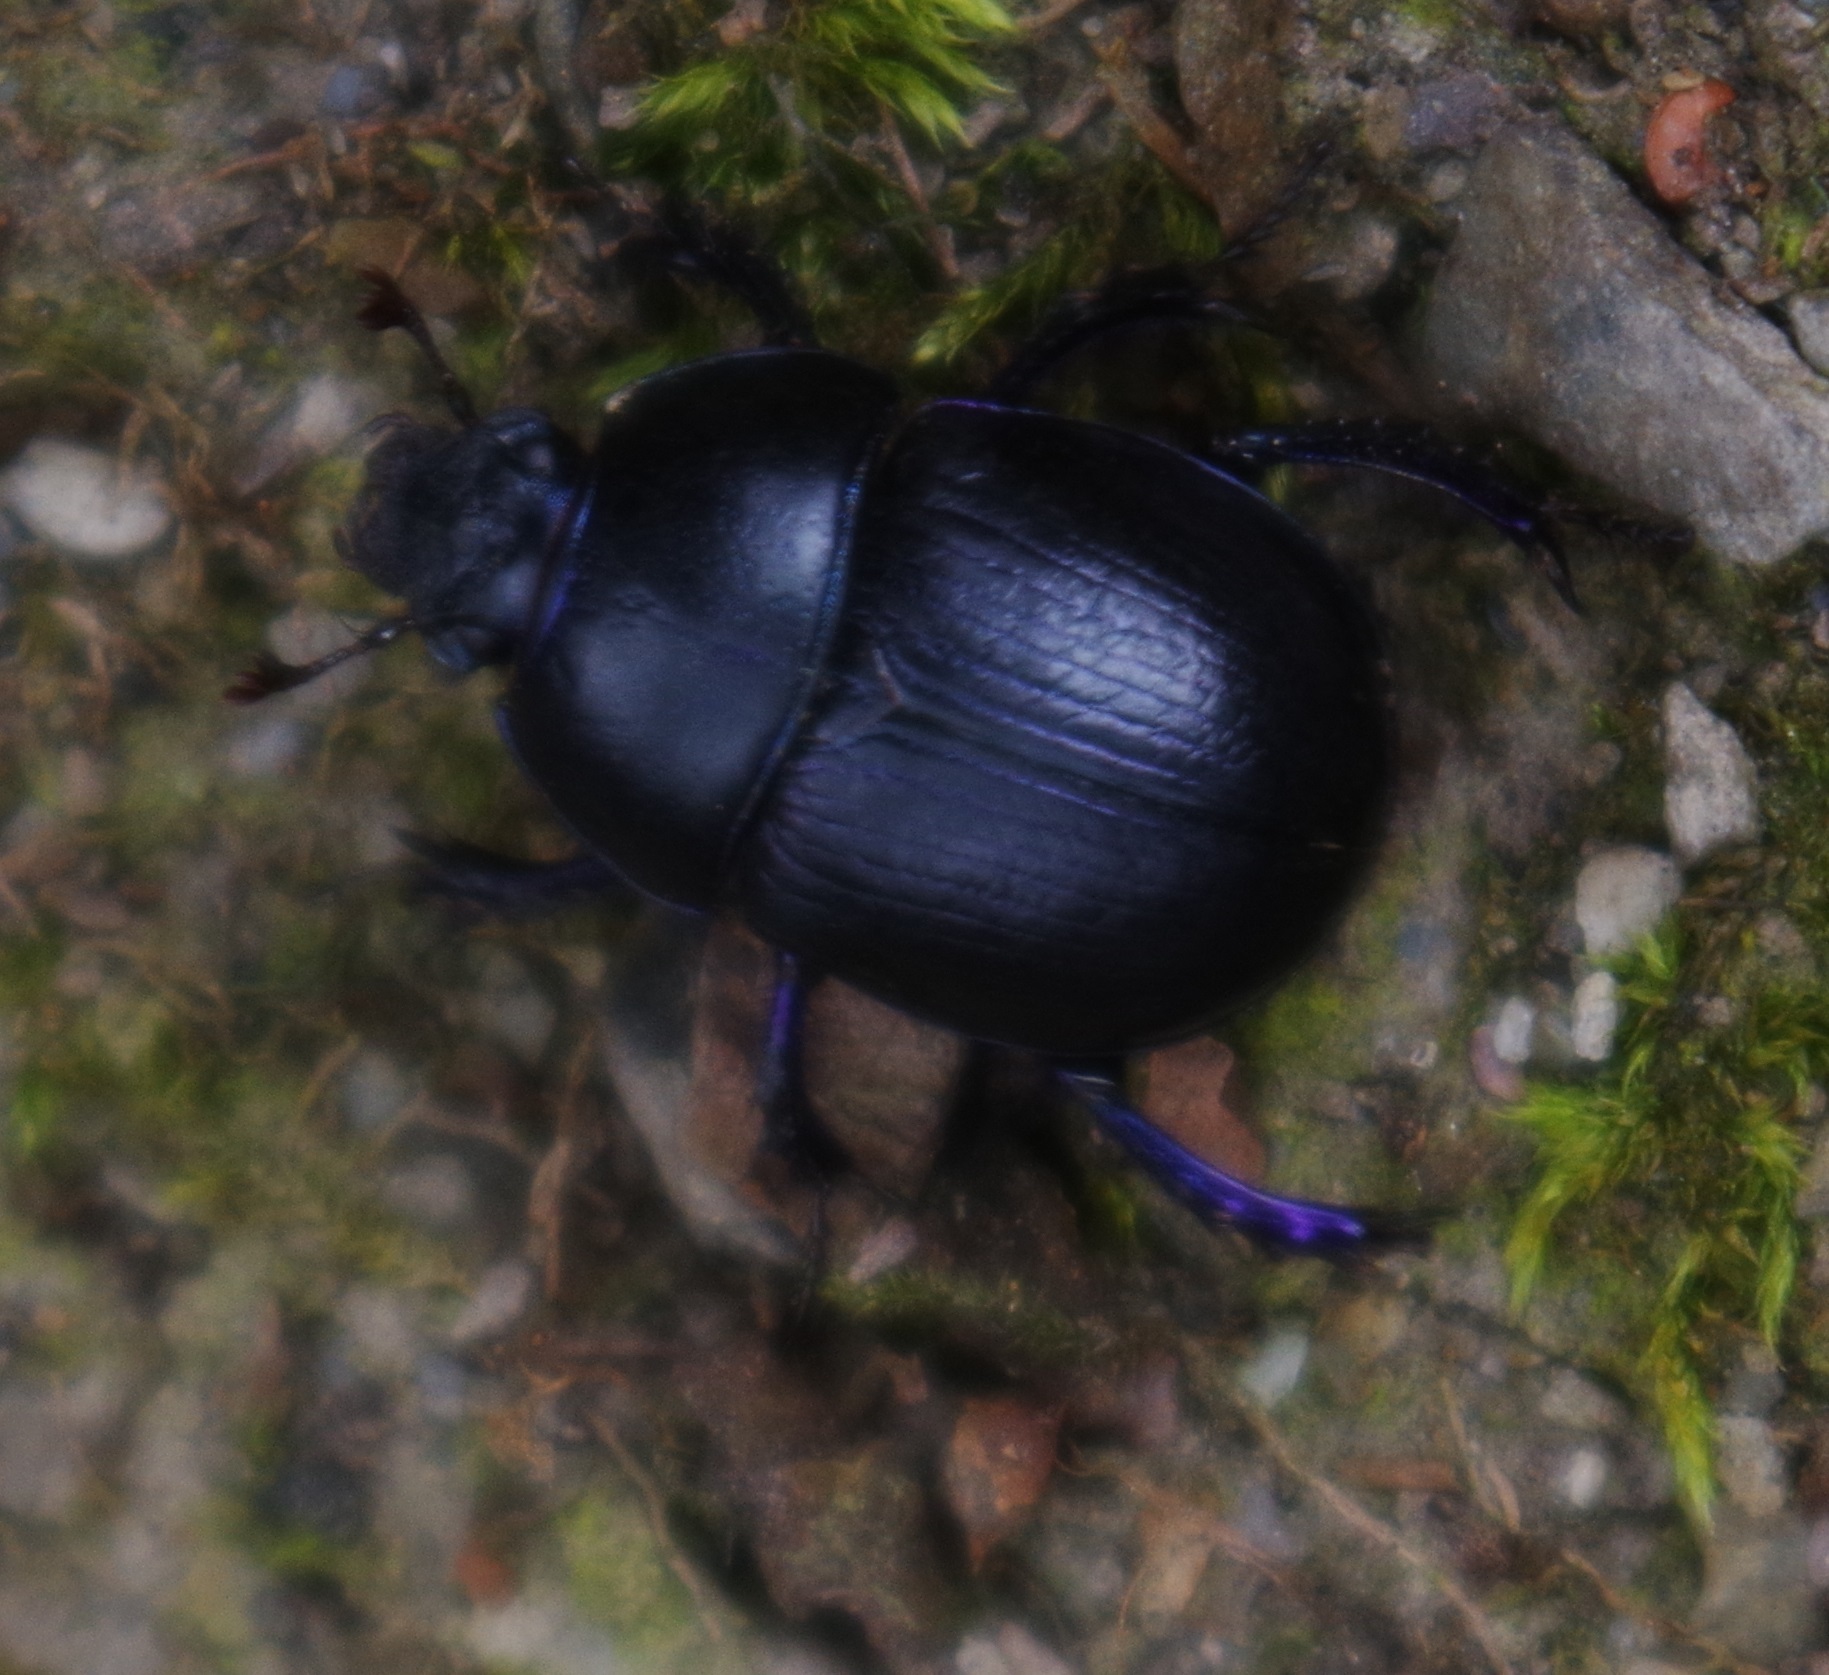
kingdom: Animalia
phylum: Arthropoda
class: Insecta
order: Coleoptera
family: Geotrupidae
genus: Anoplotrupes
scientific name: Anoplotrupes stercorosus
